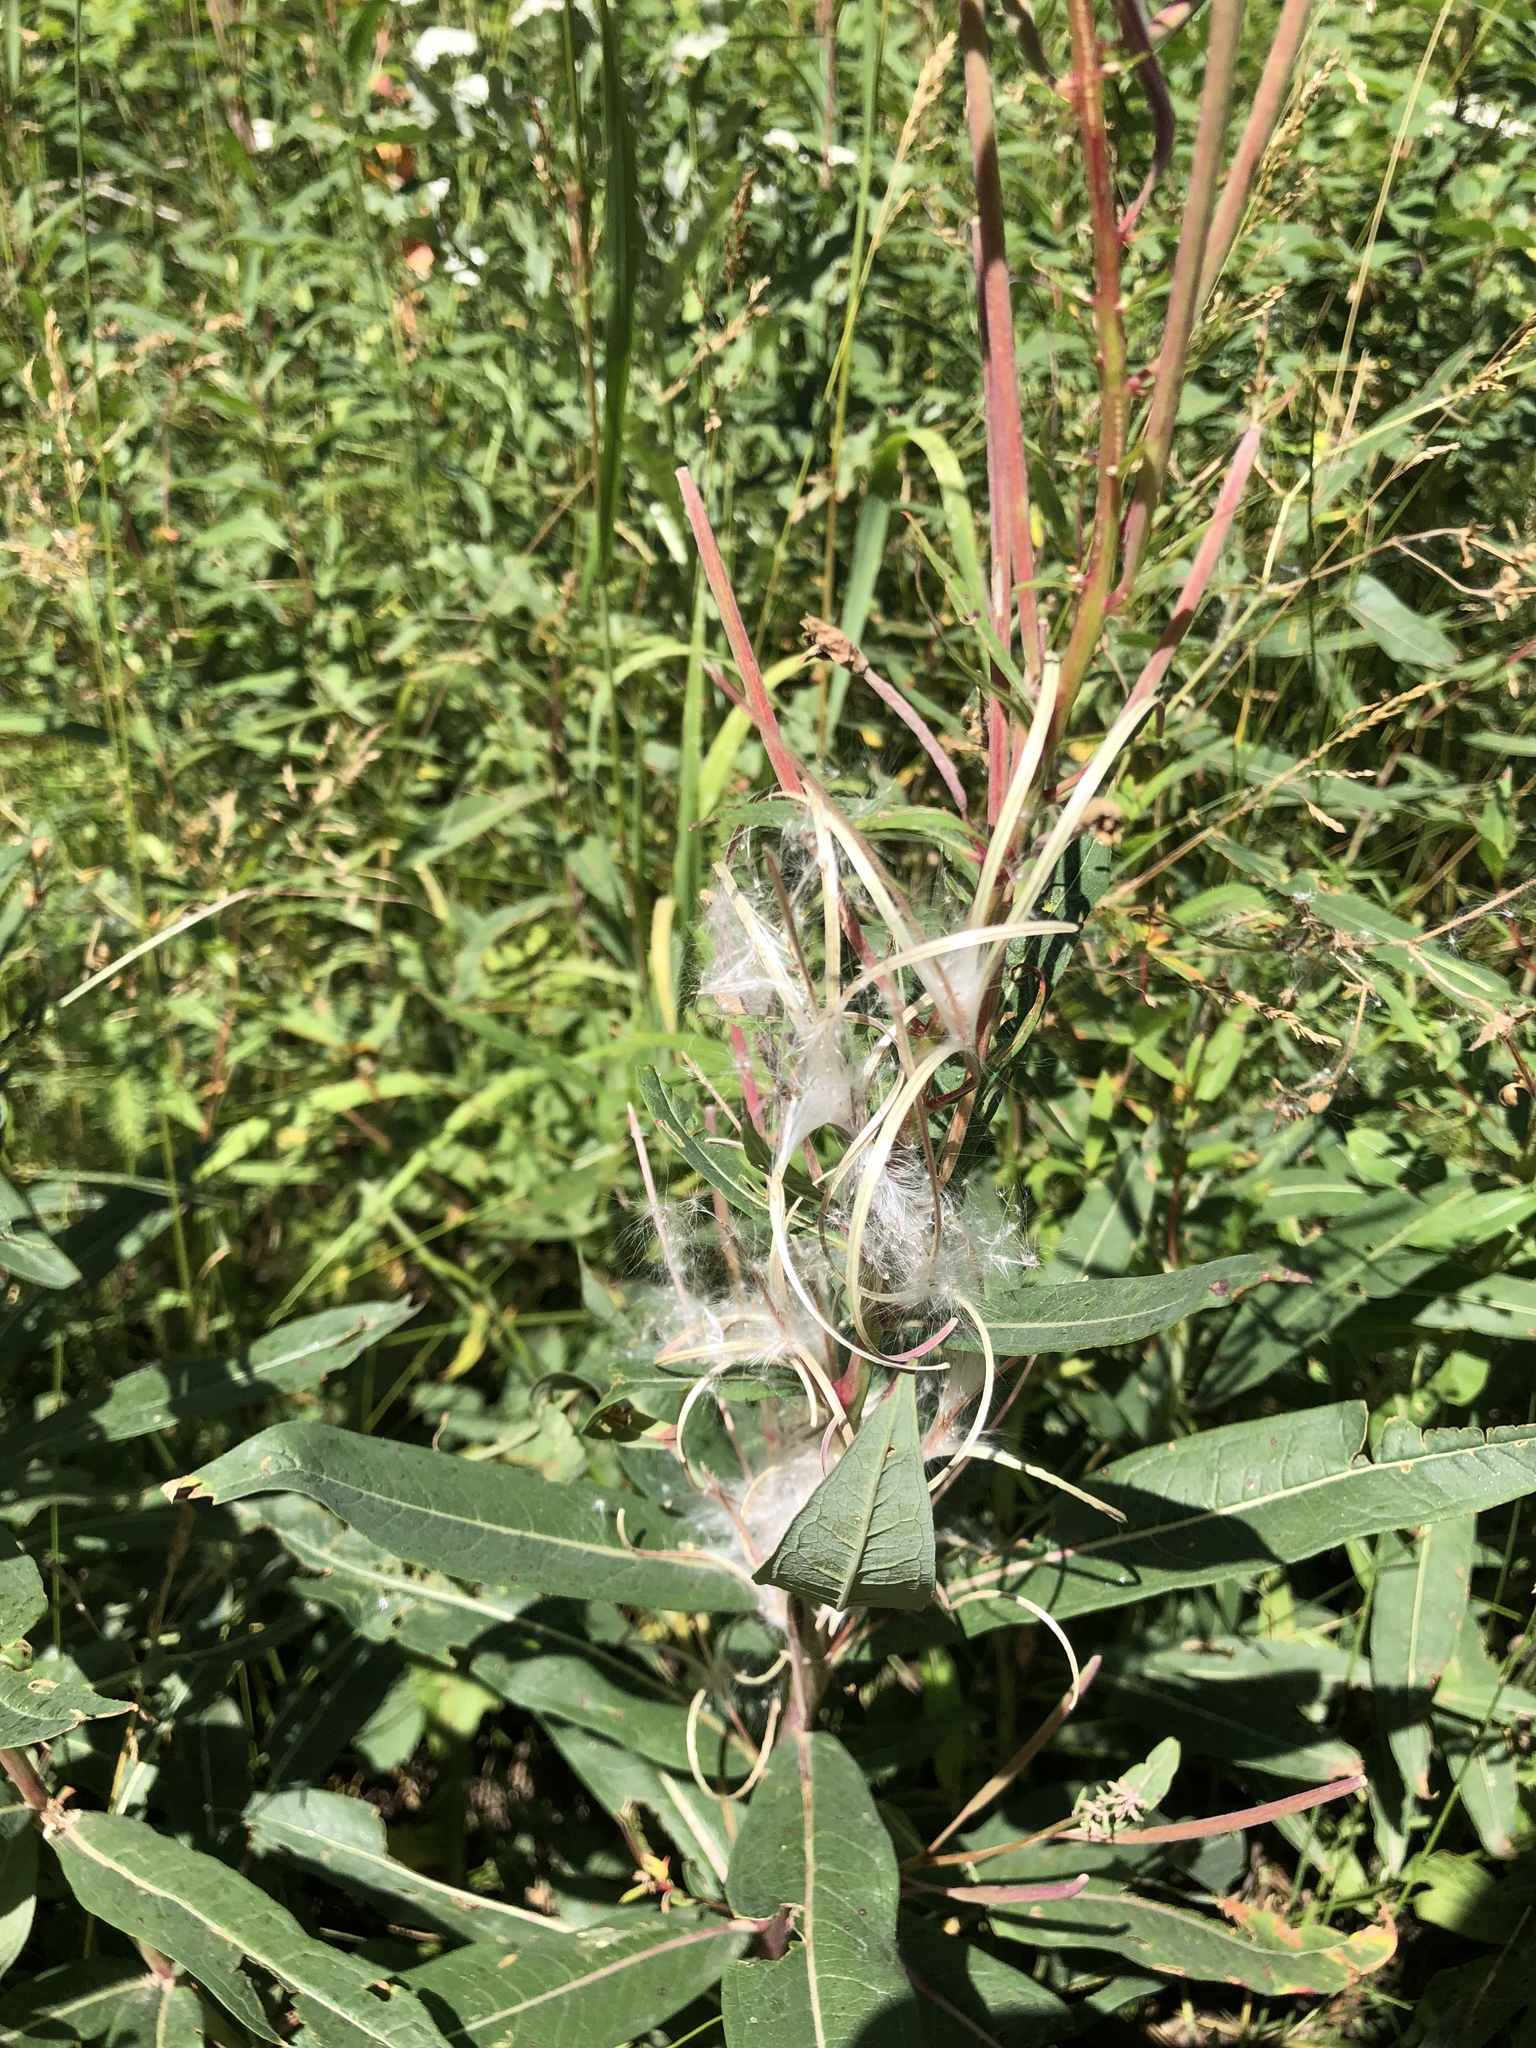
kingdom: Plantae
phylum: Tracheophyta
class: Magnoliopsida
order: Myrtales
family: Onagraceae
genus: Chamaenerion
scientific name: Chamaenerion angustifolium
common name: Fireweed
